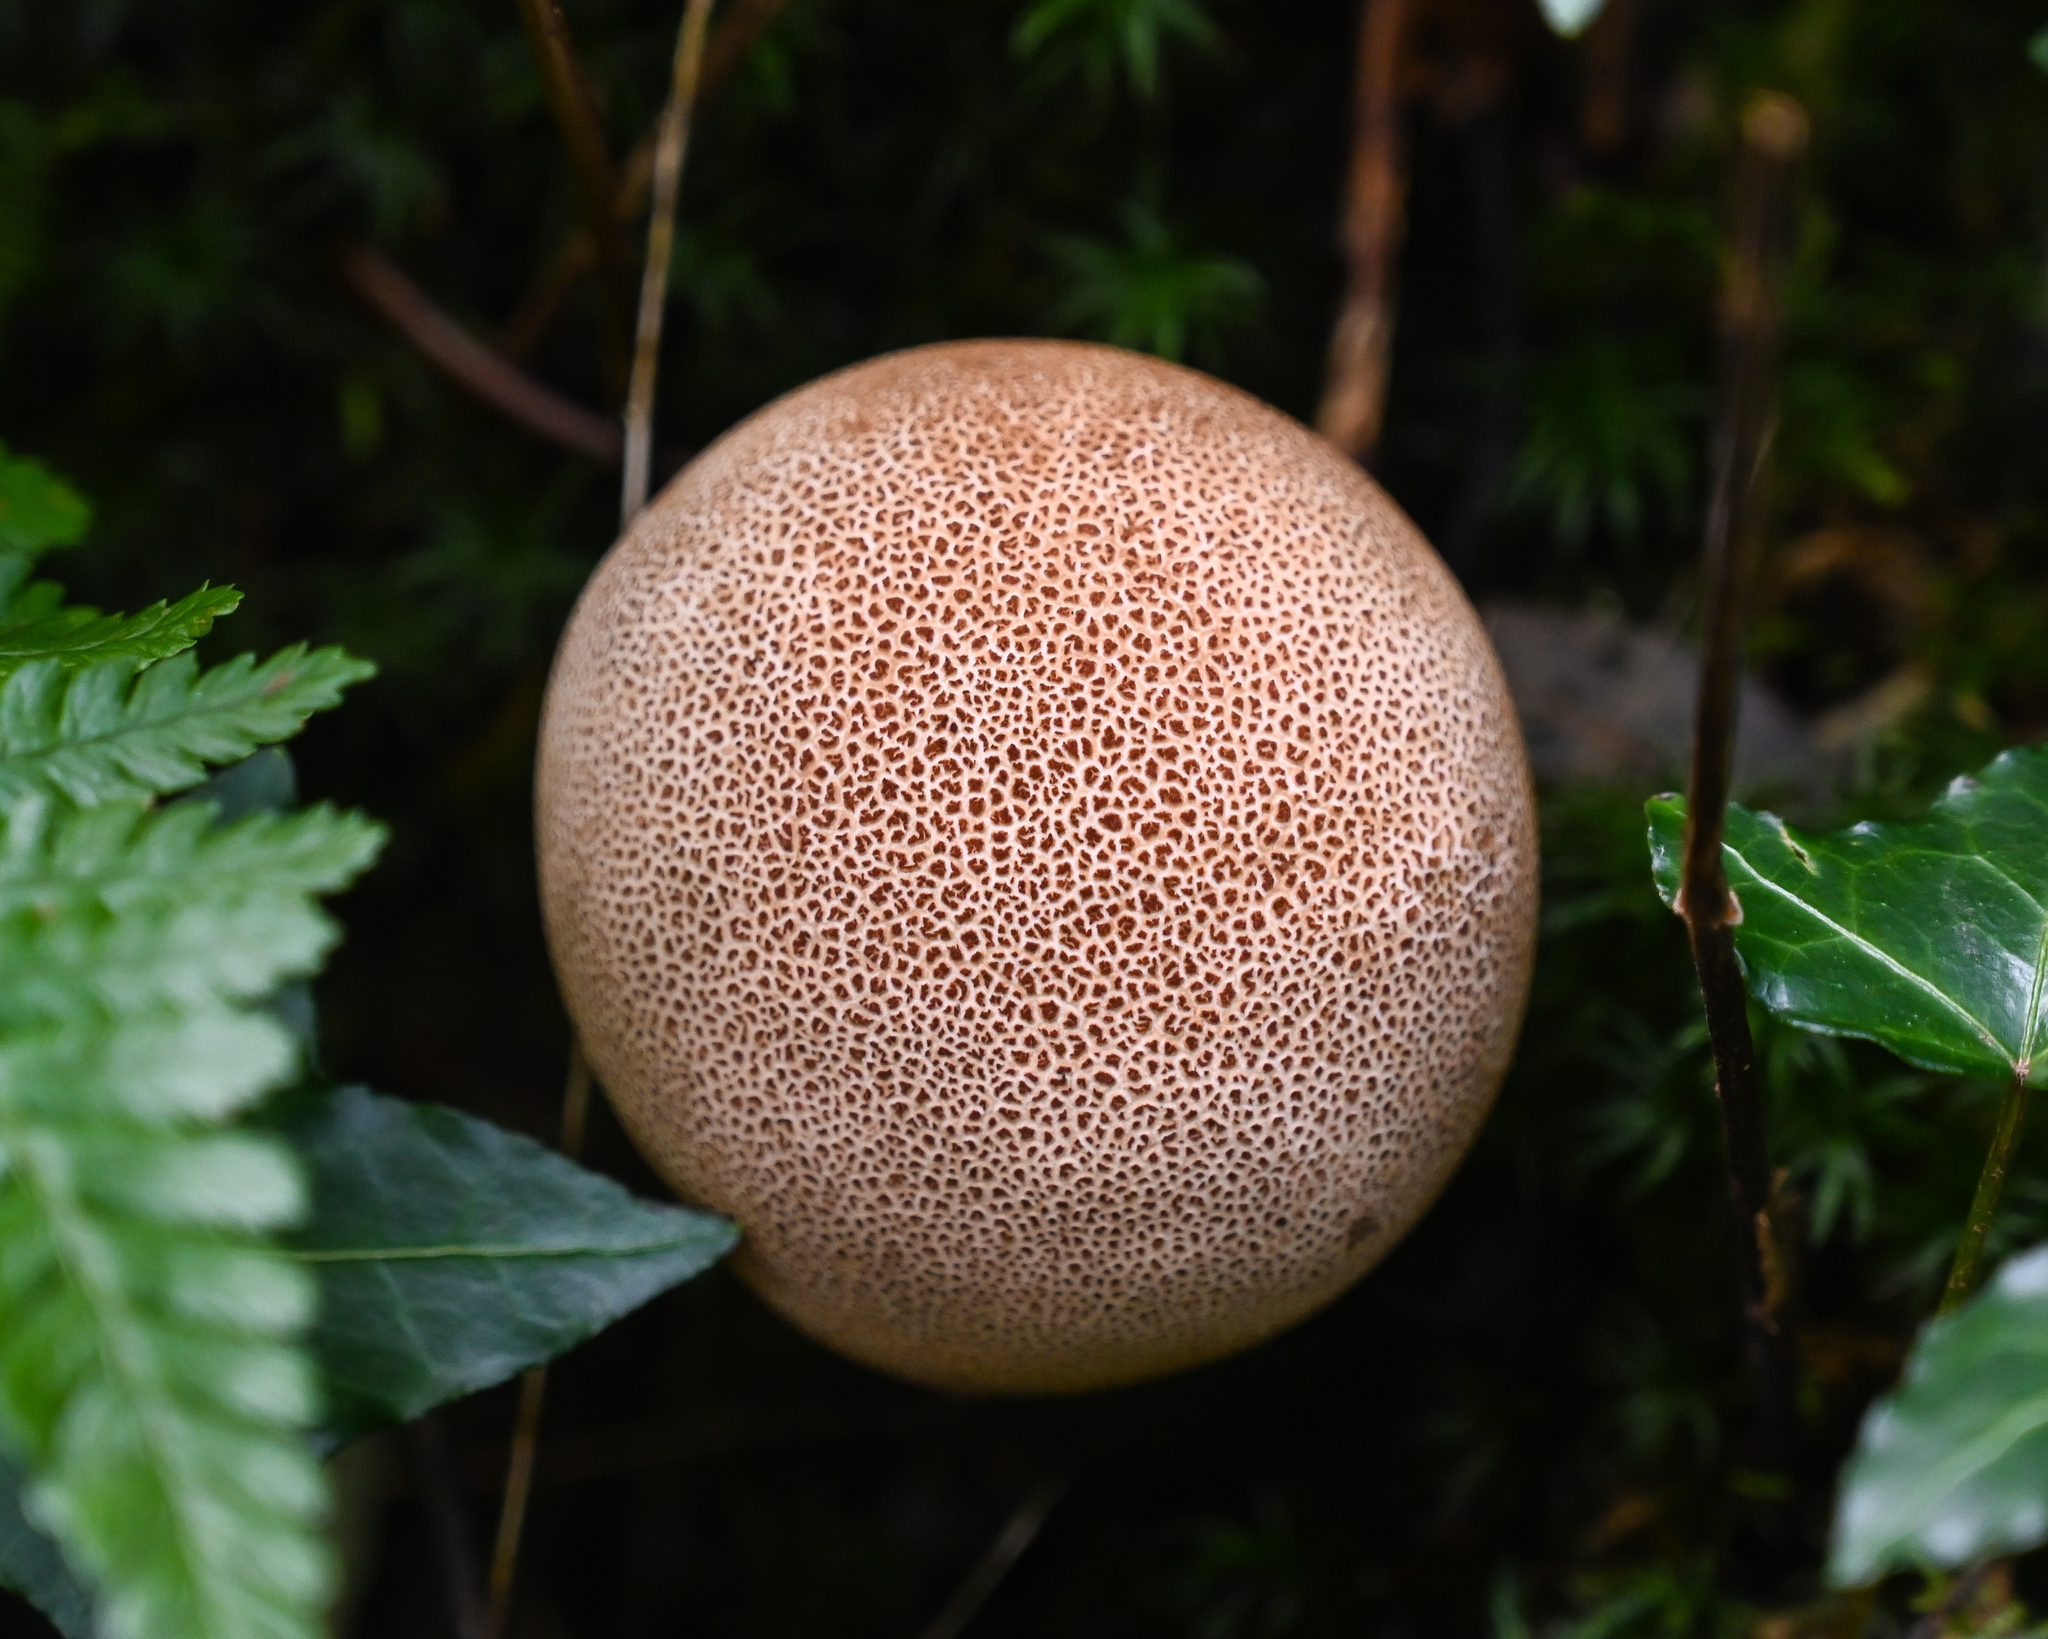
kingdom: Fungi
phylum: Basidiomycota
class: Agaricomycetes
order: Boletales
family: Sclerodermataceae
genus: Scleroderma
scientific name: Scleroderma citrinum
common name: Common earthball
